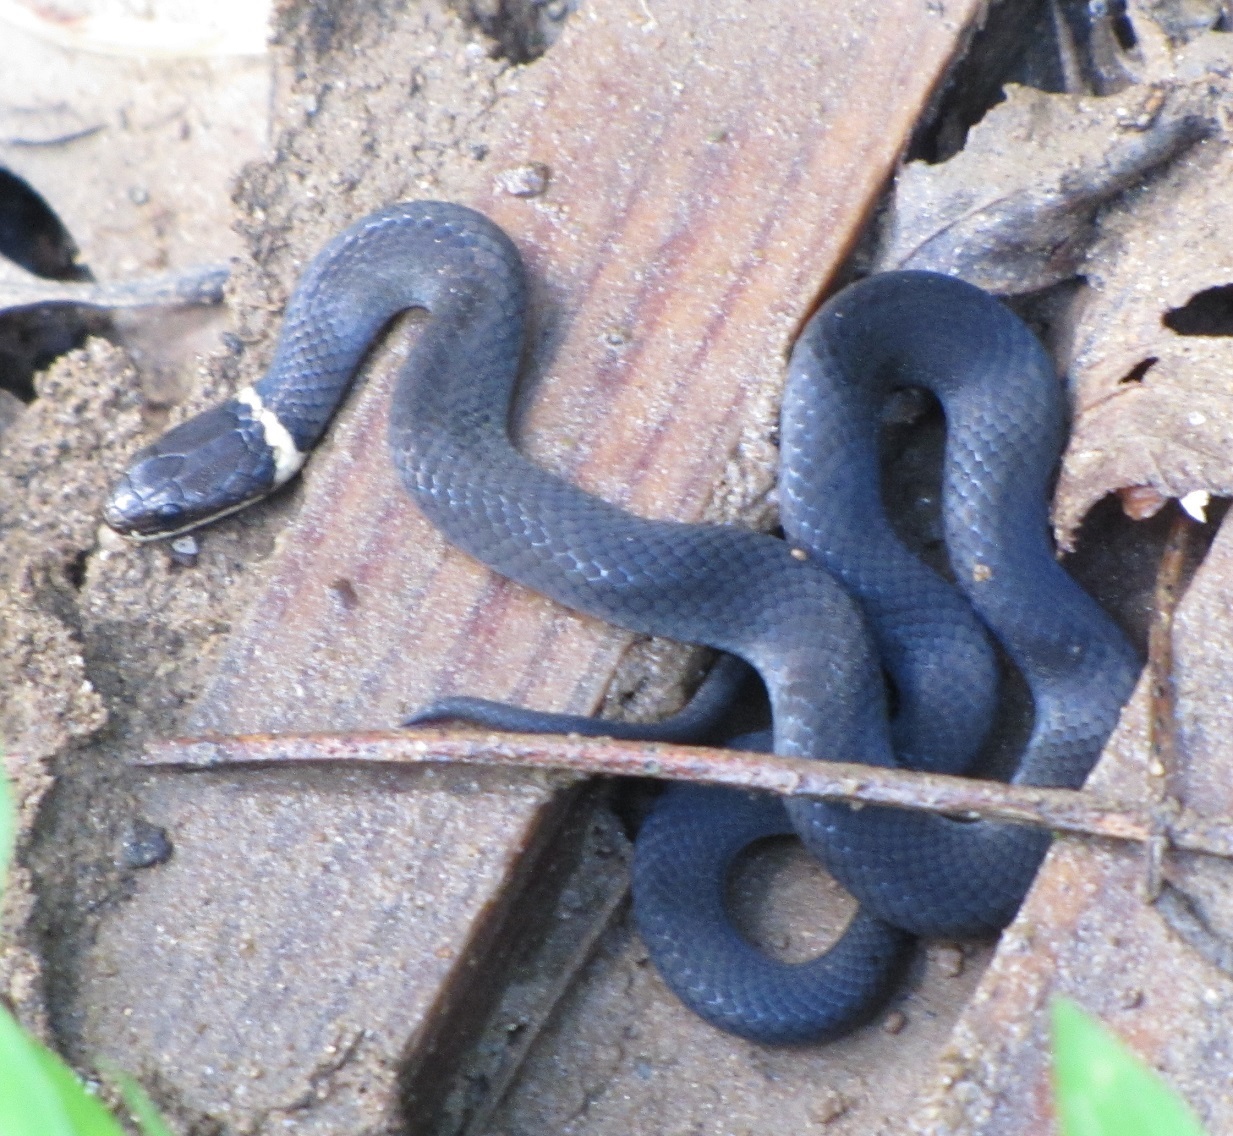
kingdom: Animalia
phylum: Chordata
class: Squamata
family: Colubridae
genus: Diadophis
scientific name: Diadophis punctatus
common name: Ringneck snake
